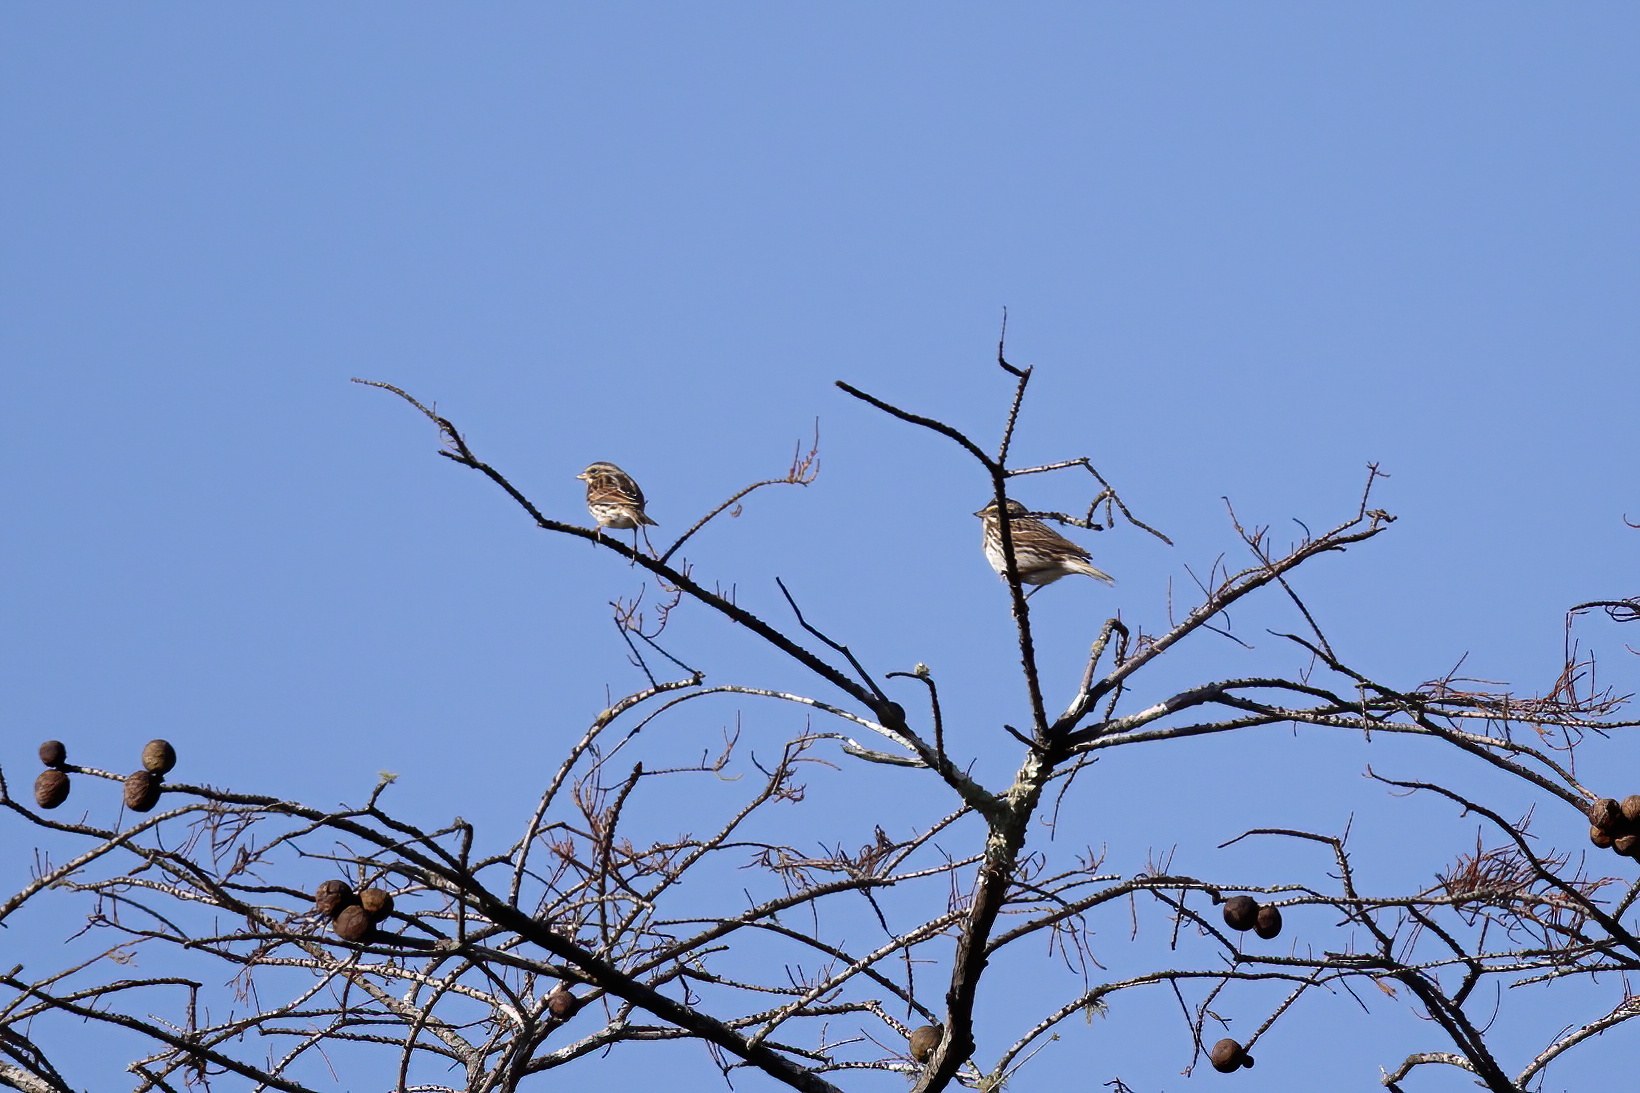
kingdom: Animalia
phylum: Chordata
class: Aves
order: Passeriformes
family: Passerellidae
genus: Passerculus
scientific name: Passerculus sandwichensis
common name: Savannah sparrow
